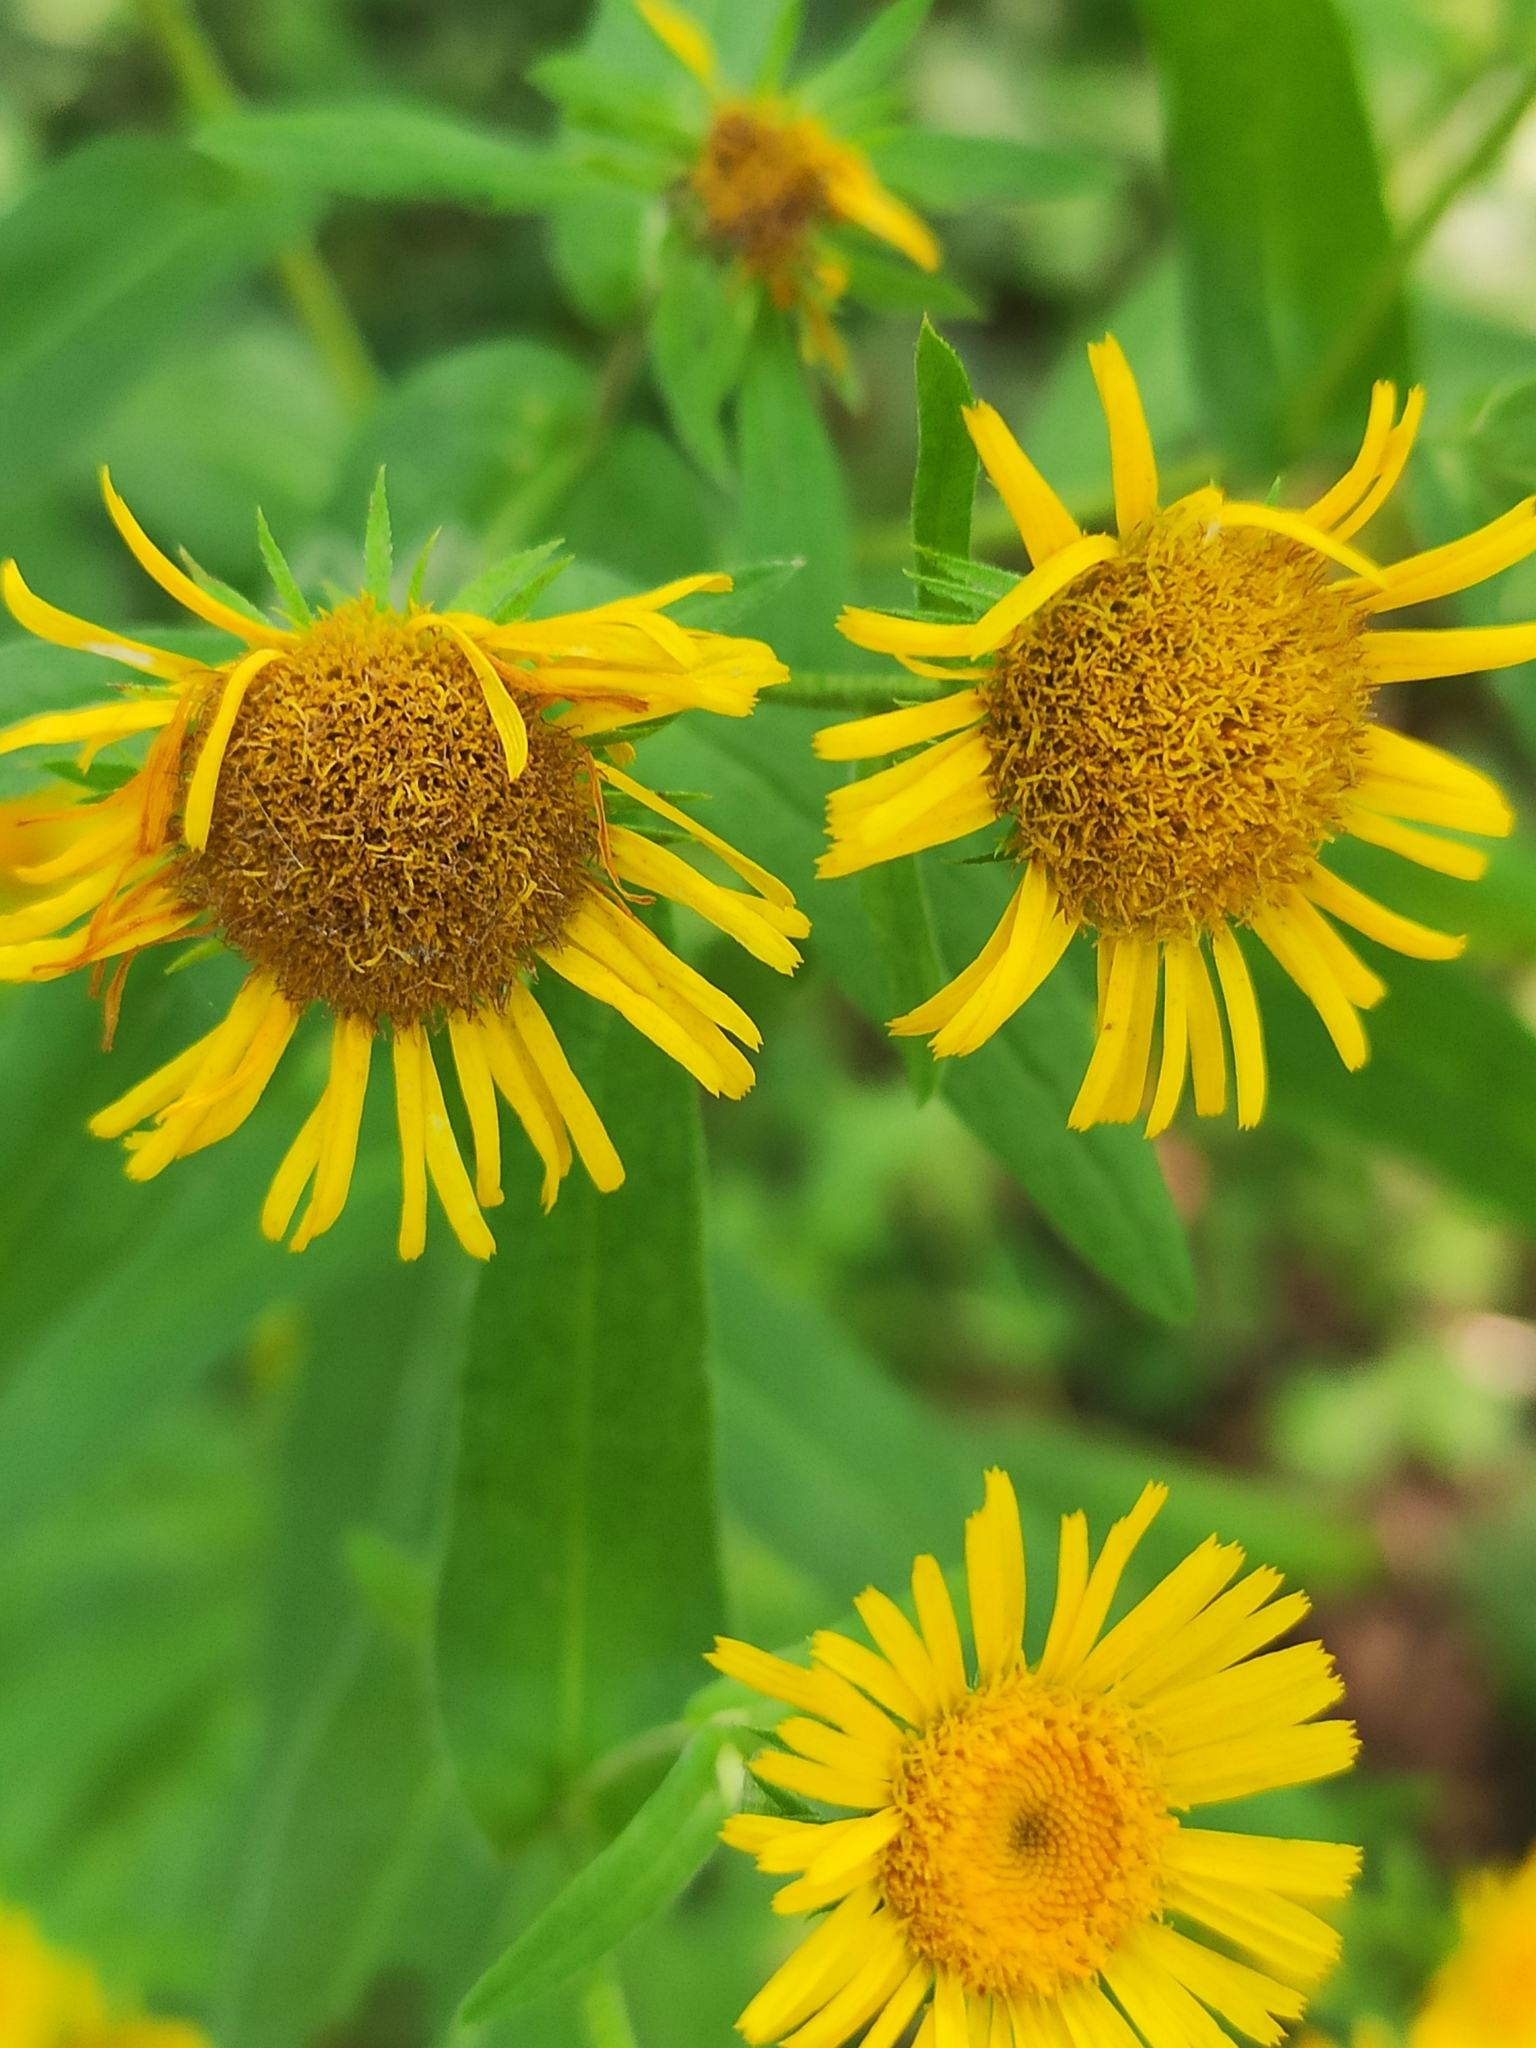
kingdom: Plantae
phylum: Tracheophyta
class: Magnoliopsida
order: Asterales
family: Asteraceae
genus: Pentanema
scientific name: Pentanema britannicum
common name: British elecampane
